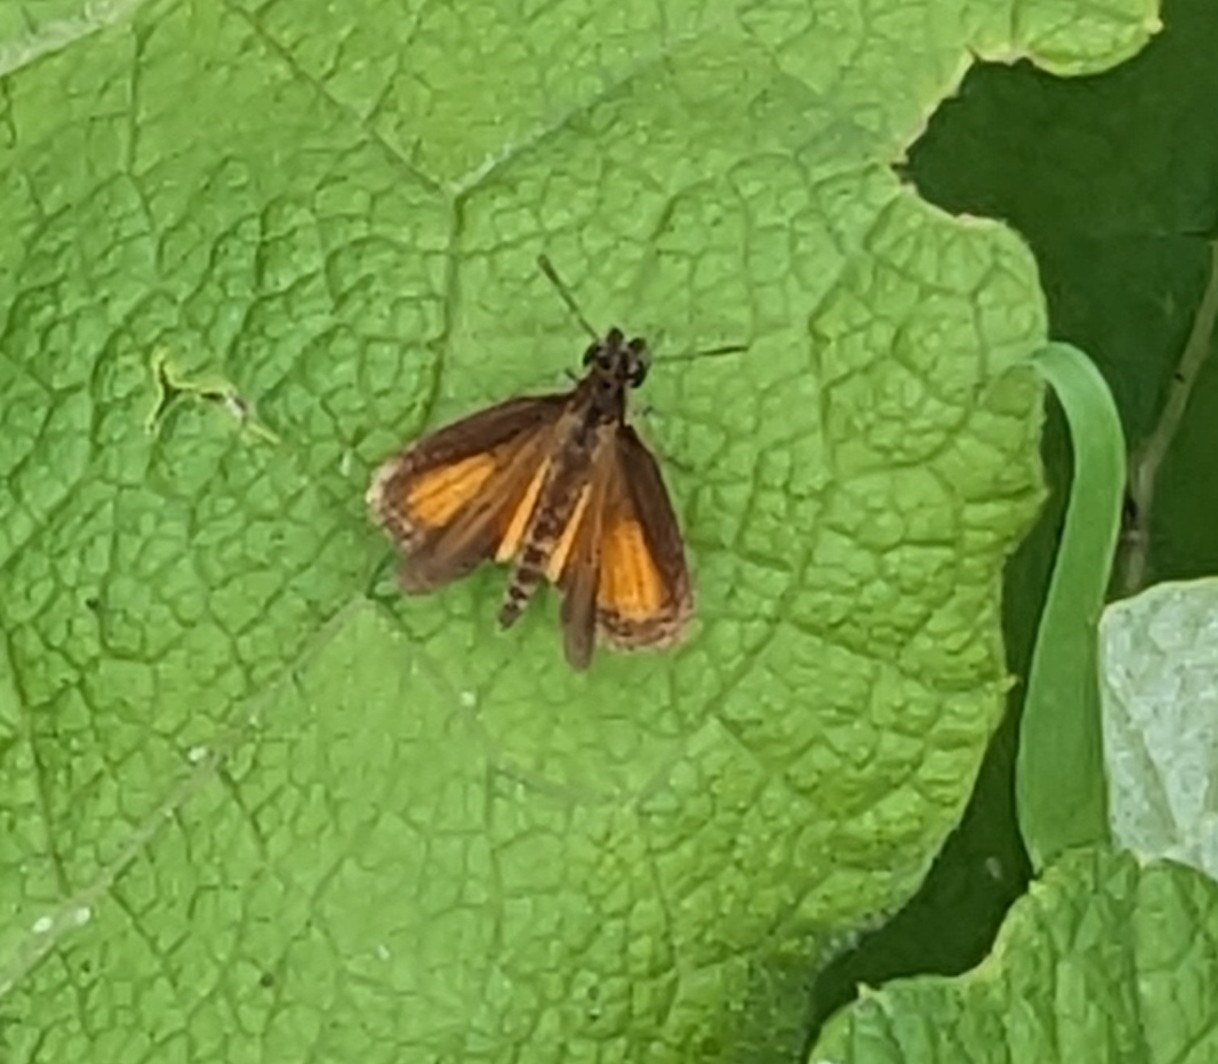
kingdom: Animalia
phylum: Arthropoda
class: Insecta
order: Lepidoptera
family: Hesperiidae
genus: Ancyloxypha
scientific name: Ancyloxypha numitor
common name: Least skipper
